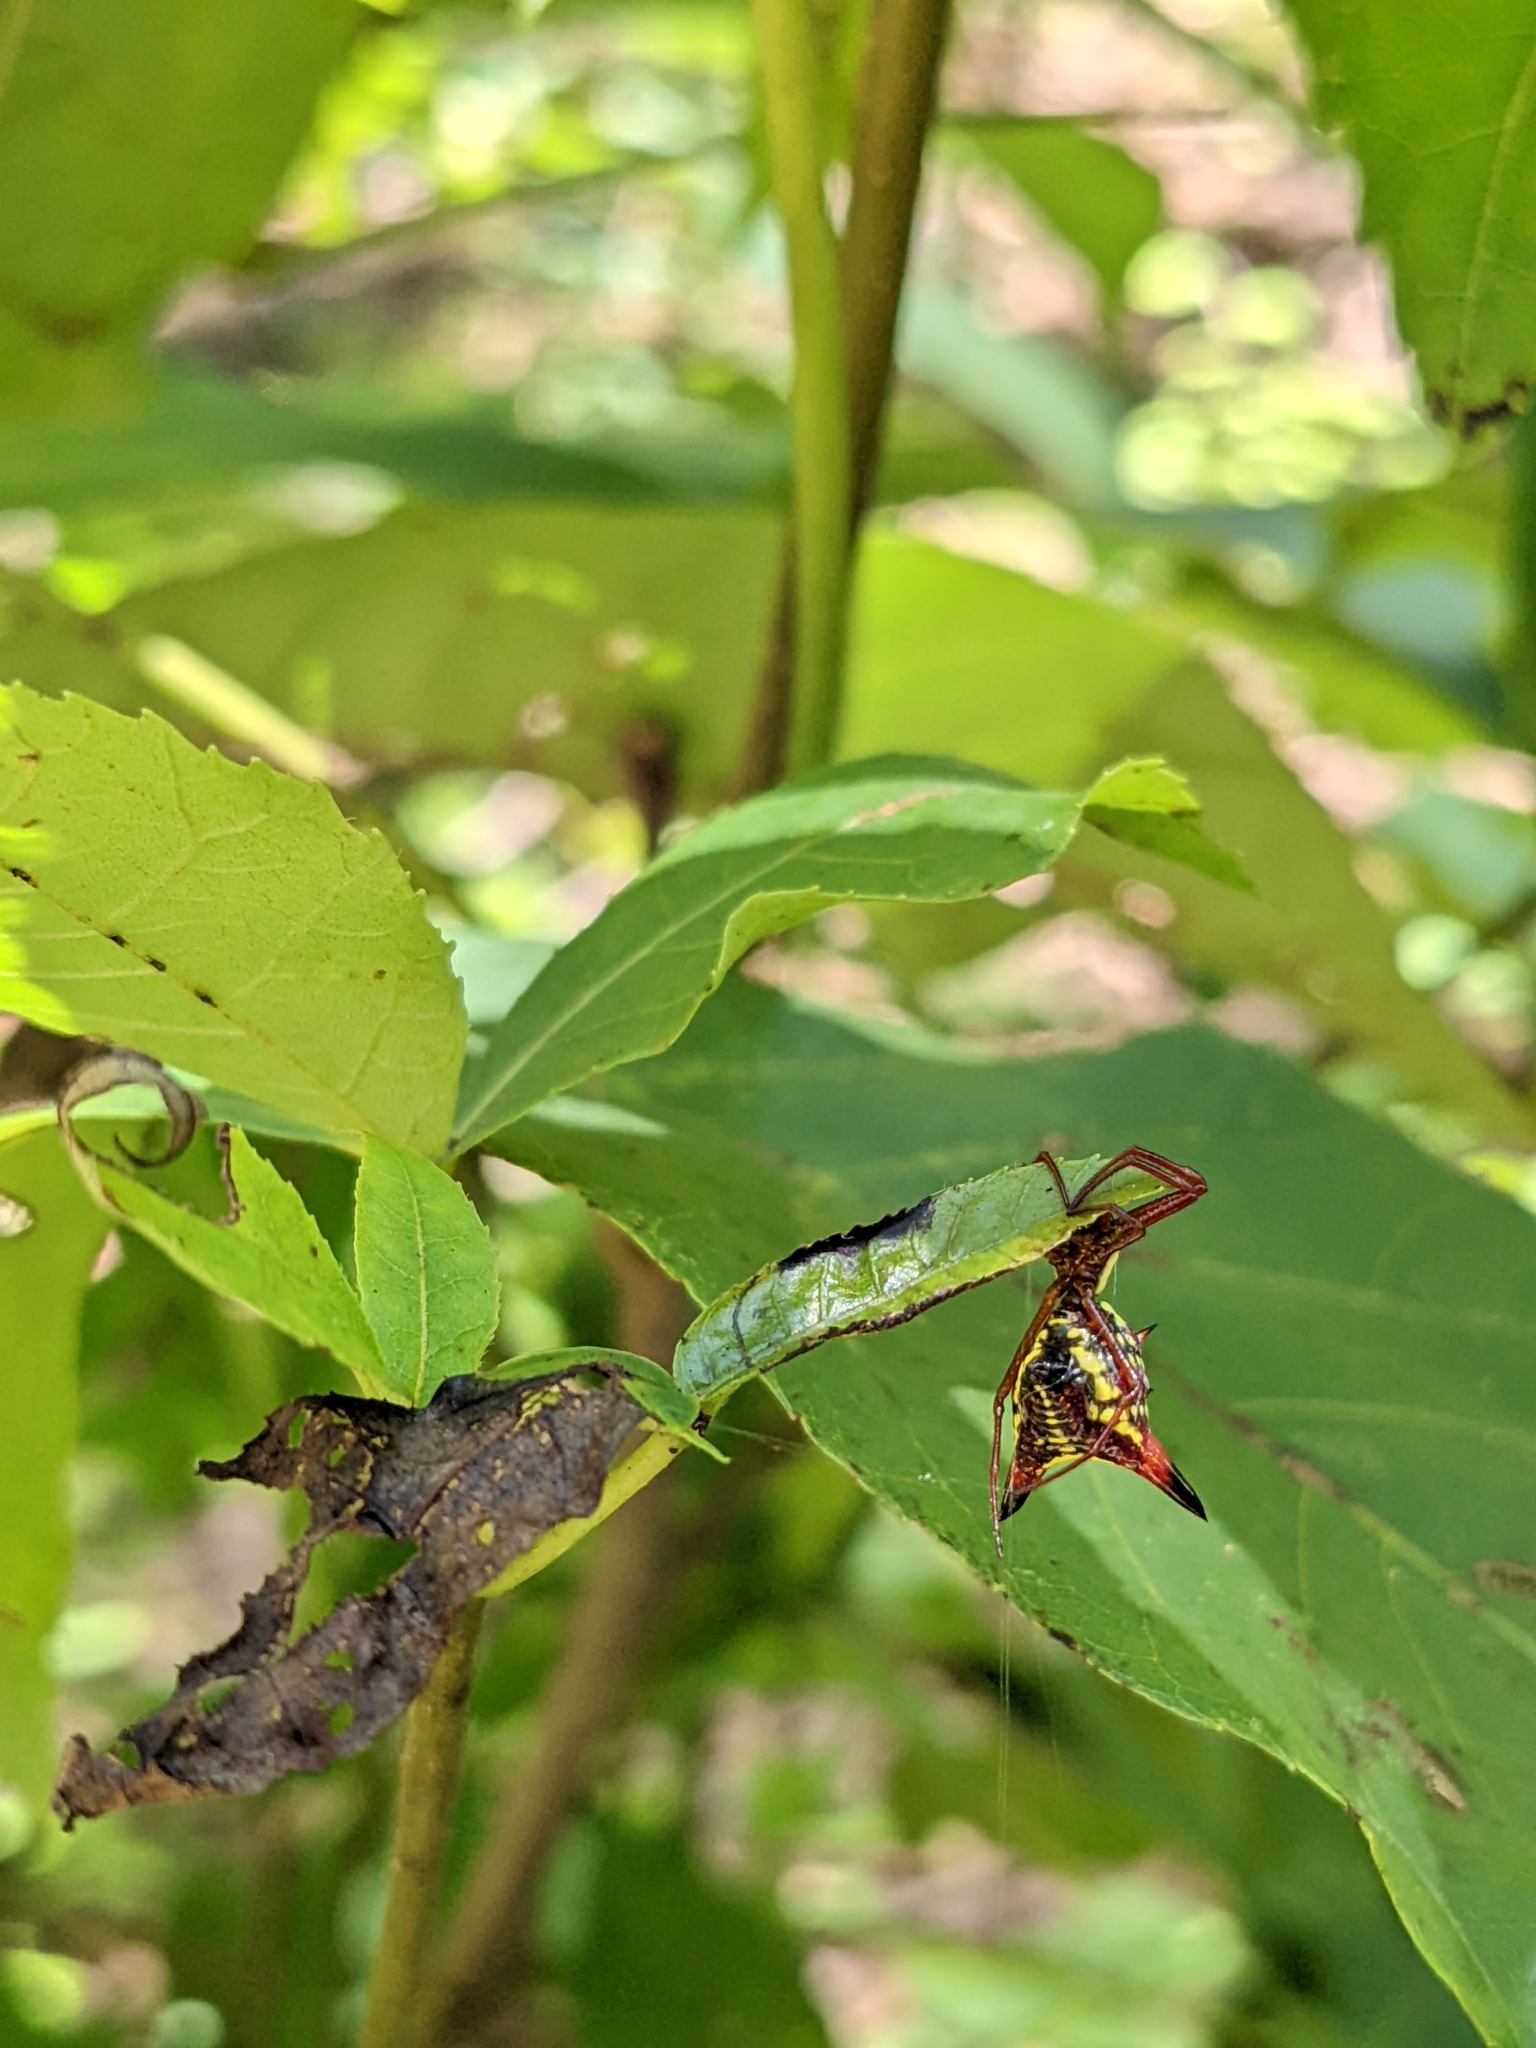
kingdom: Animalia
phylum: Arthropoda
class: Arachnida
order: Araneae
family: Araneidae
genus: Micrathena
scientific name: Micrathena sagittata
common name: Orb weavers
